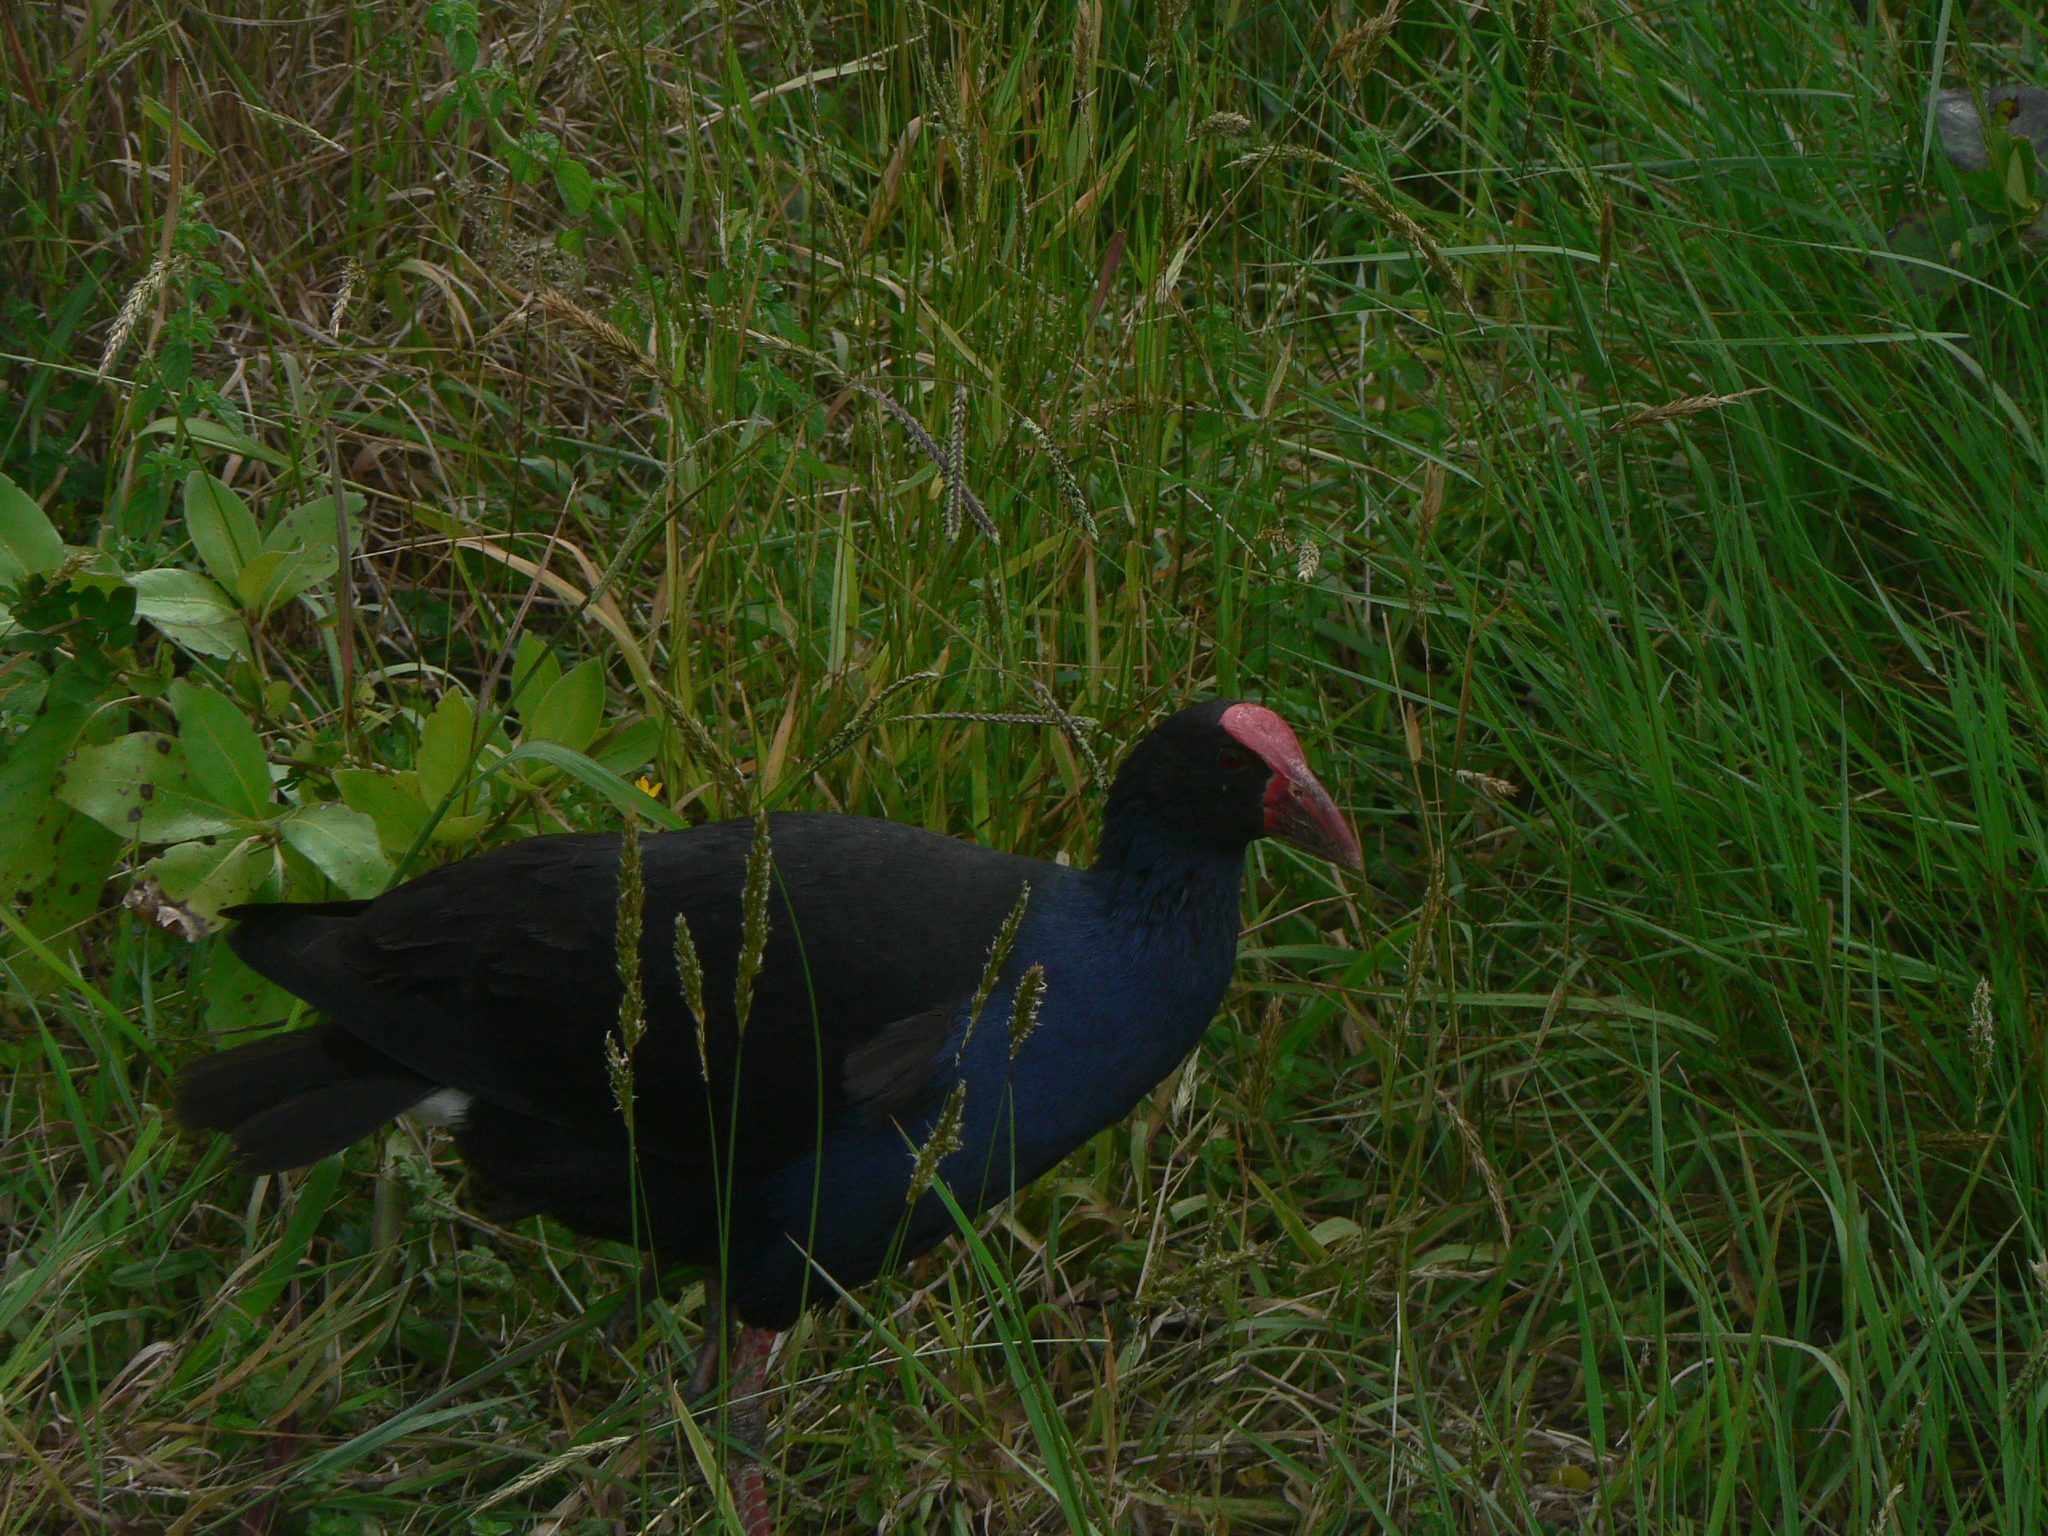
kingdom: Animalia
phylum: Chordata
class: Aves
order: Gruiformes
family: Rallidae
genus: Porphyrio
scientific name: Porphyrio melanotus
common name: Australasian swamphen
